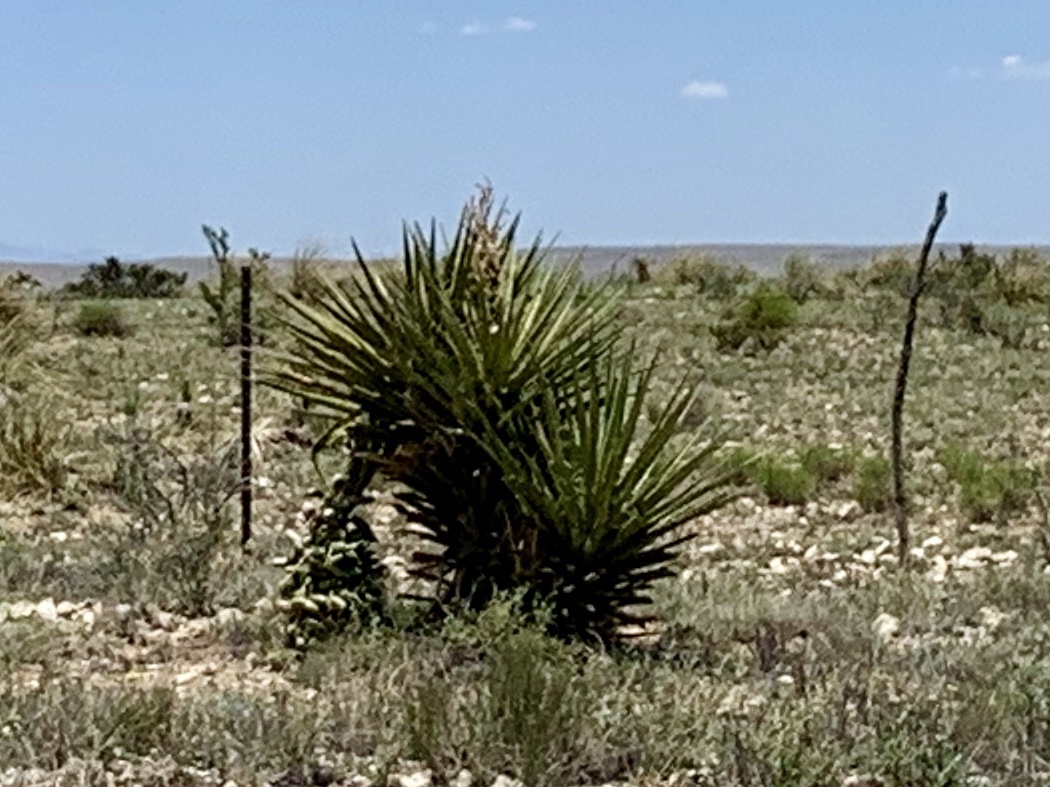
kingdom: Plantae
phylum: Tracheophyta
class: Liliopsida
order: Asparagales
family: Asparagaceae
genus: Yucca
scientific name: Yucca treculiana
